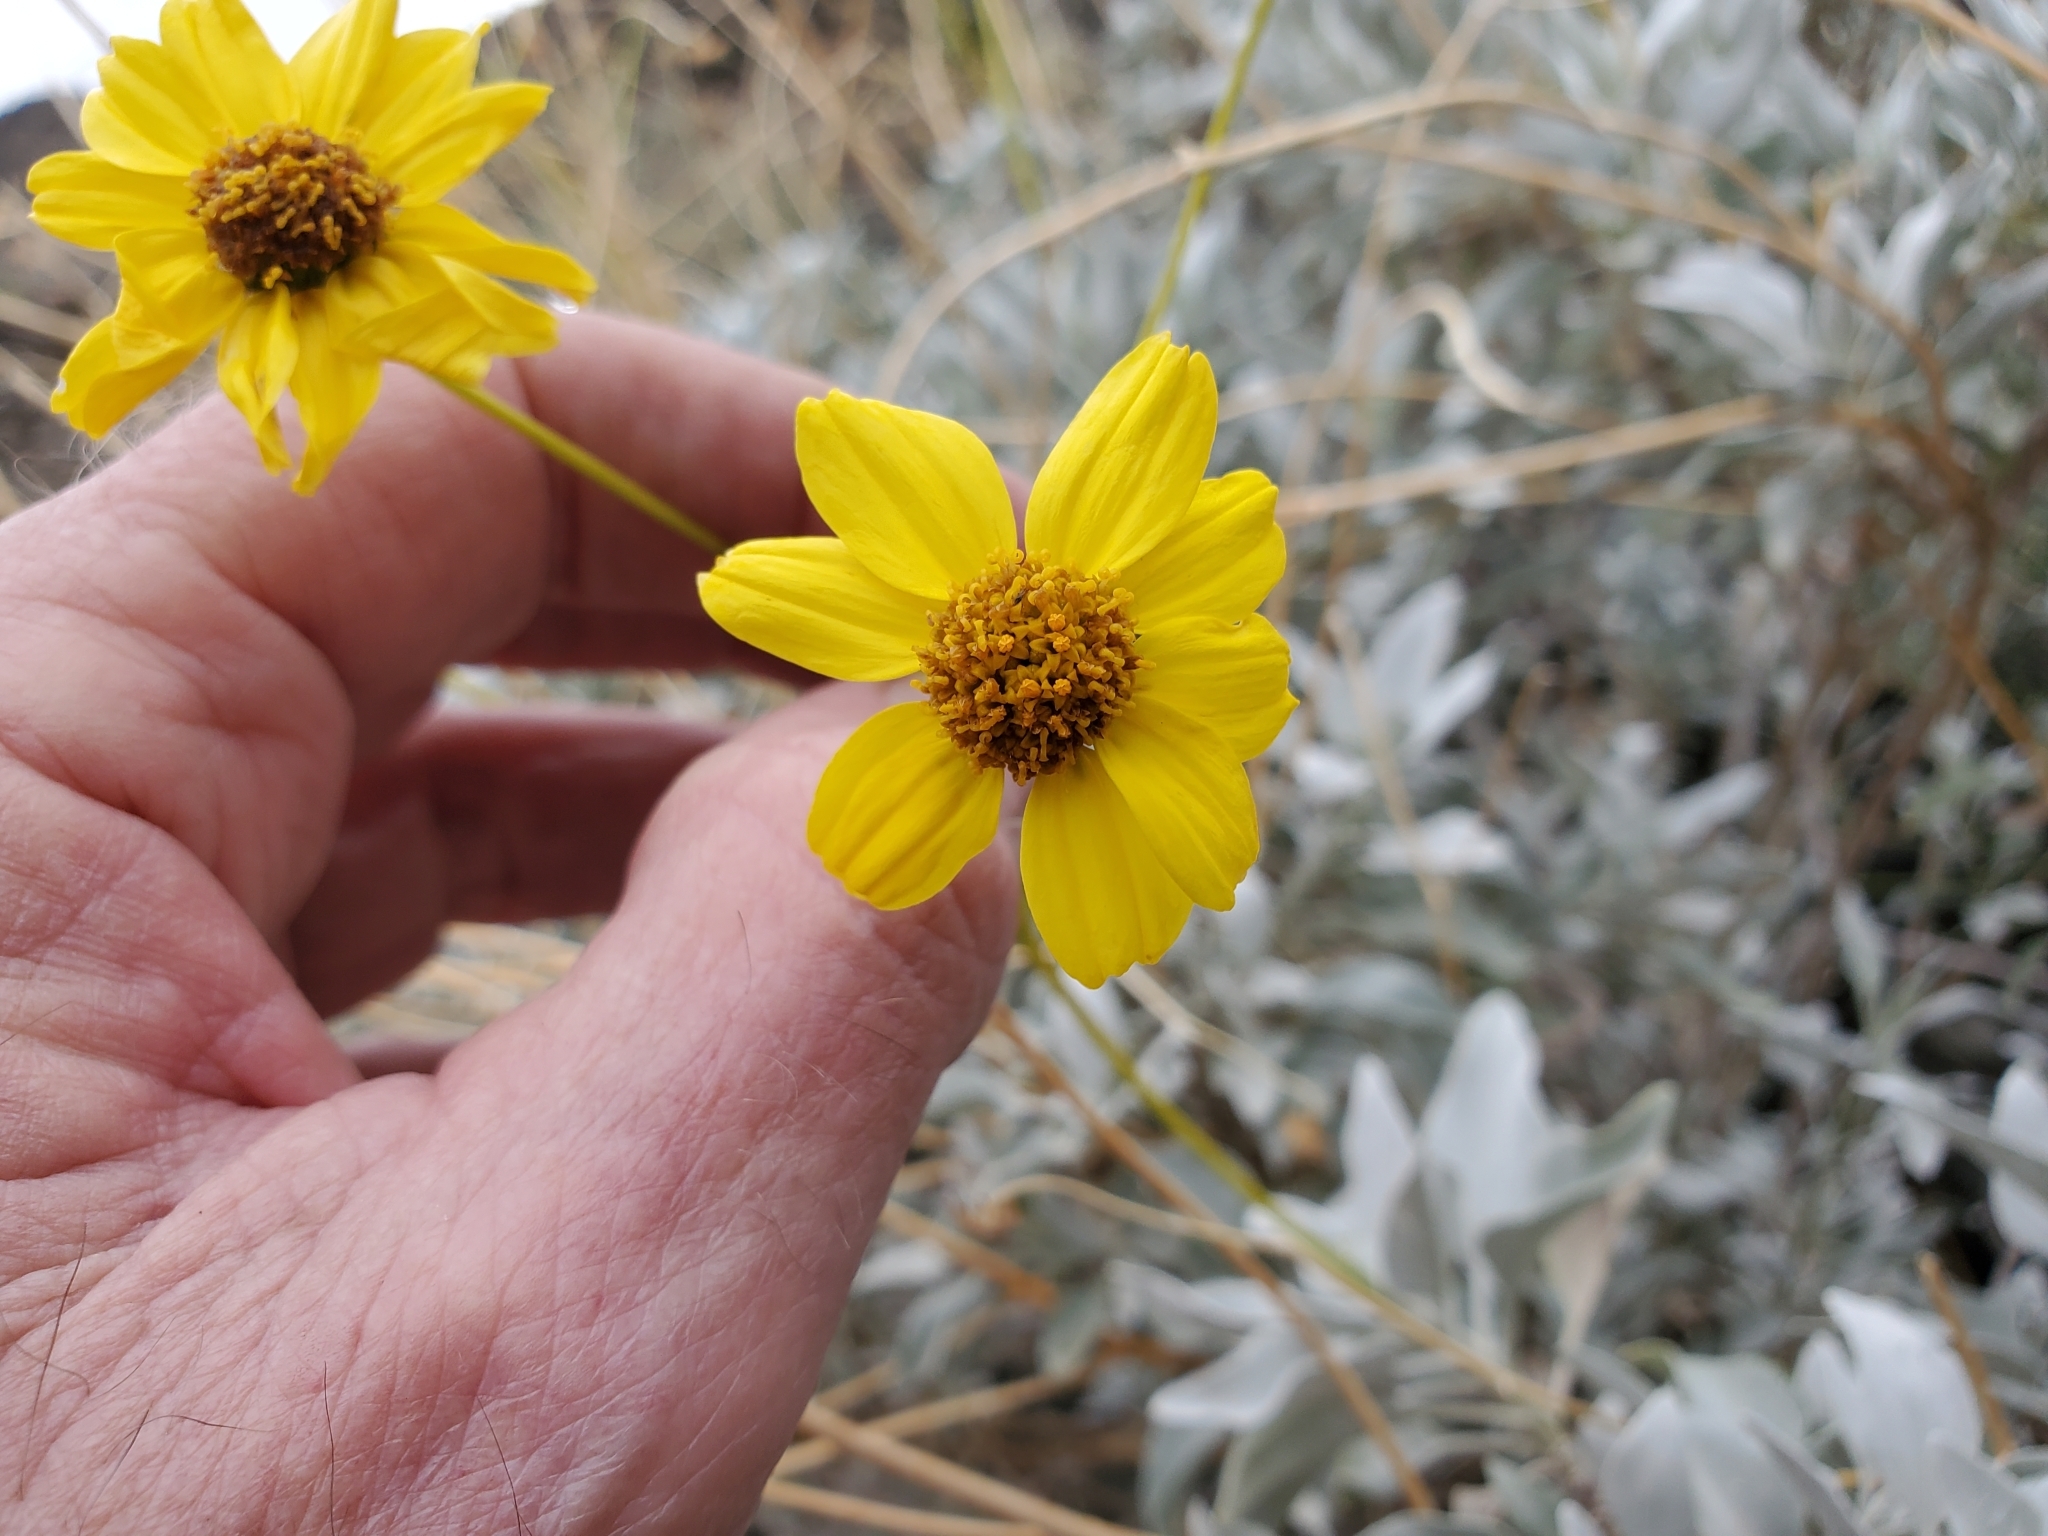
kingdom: Plantae
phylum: Tracheophyta
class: Magnoliopsida
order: Asterales
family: Asteraceae
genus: Encelia
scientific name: Encelia farinosa
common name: Brittlebush
